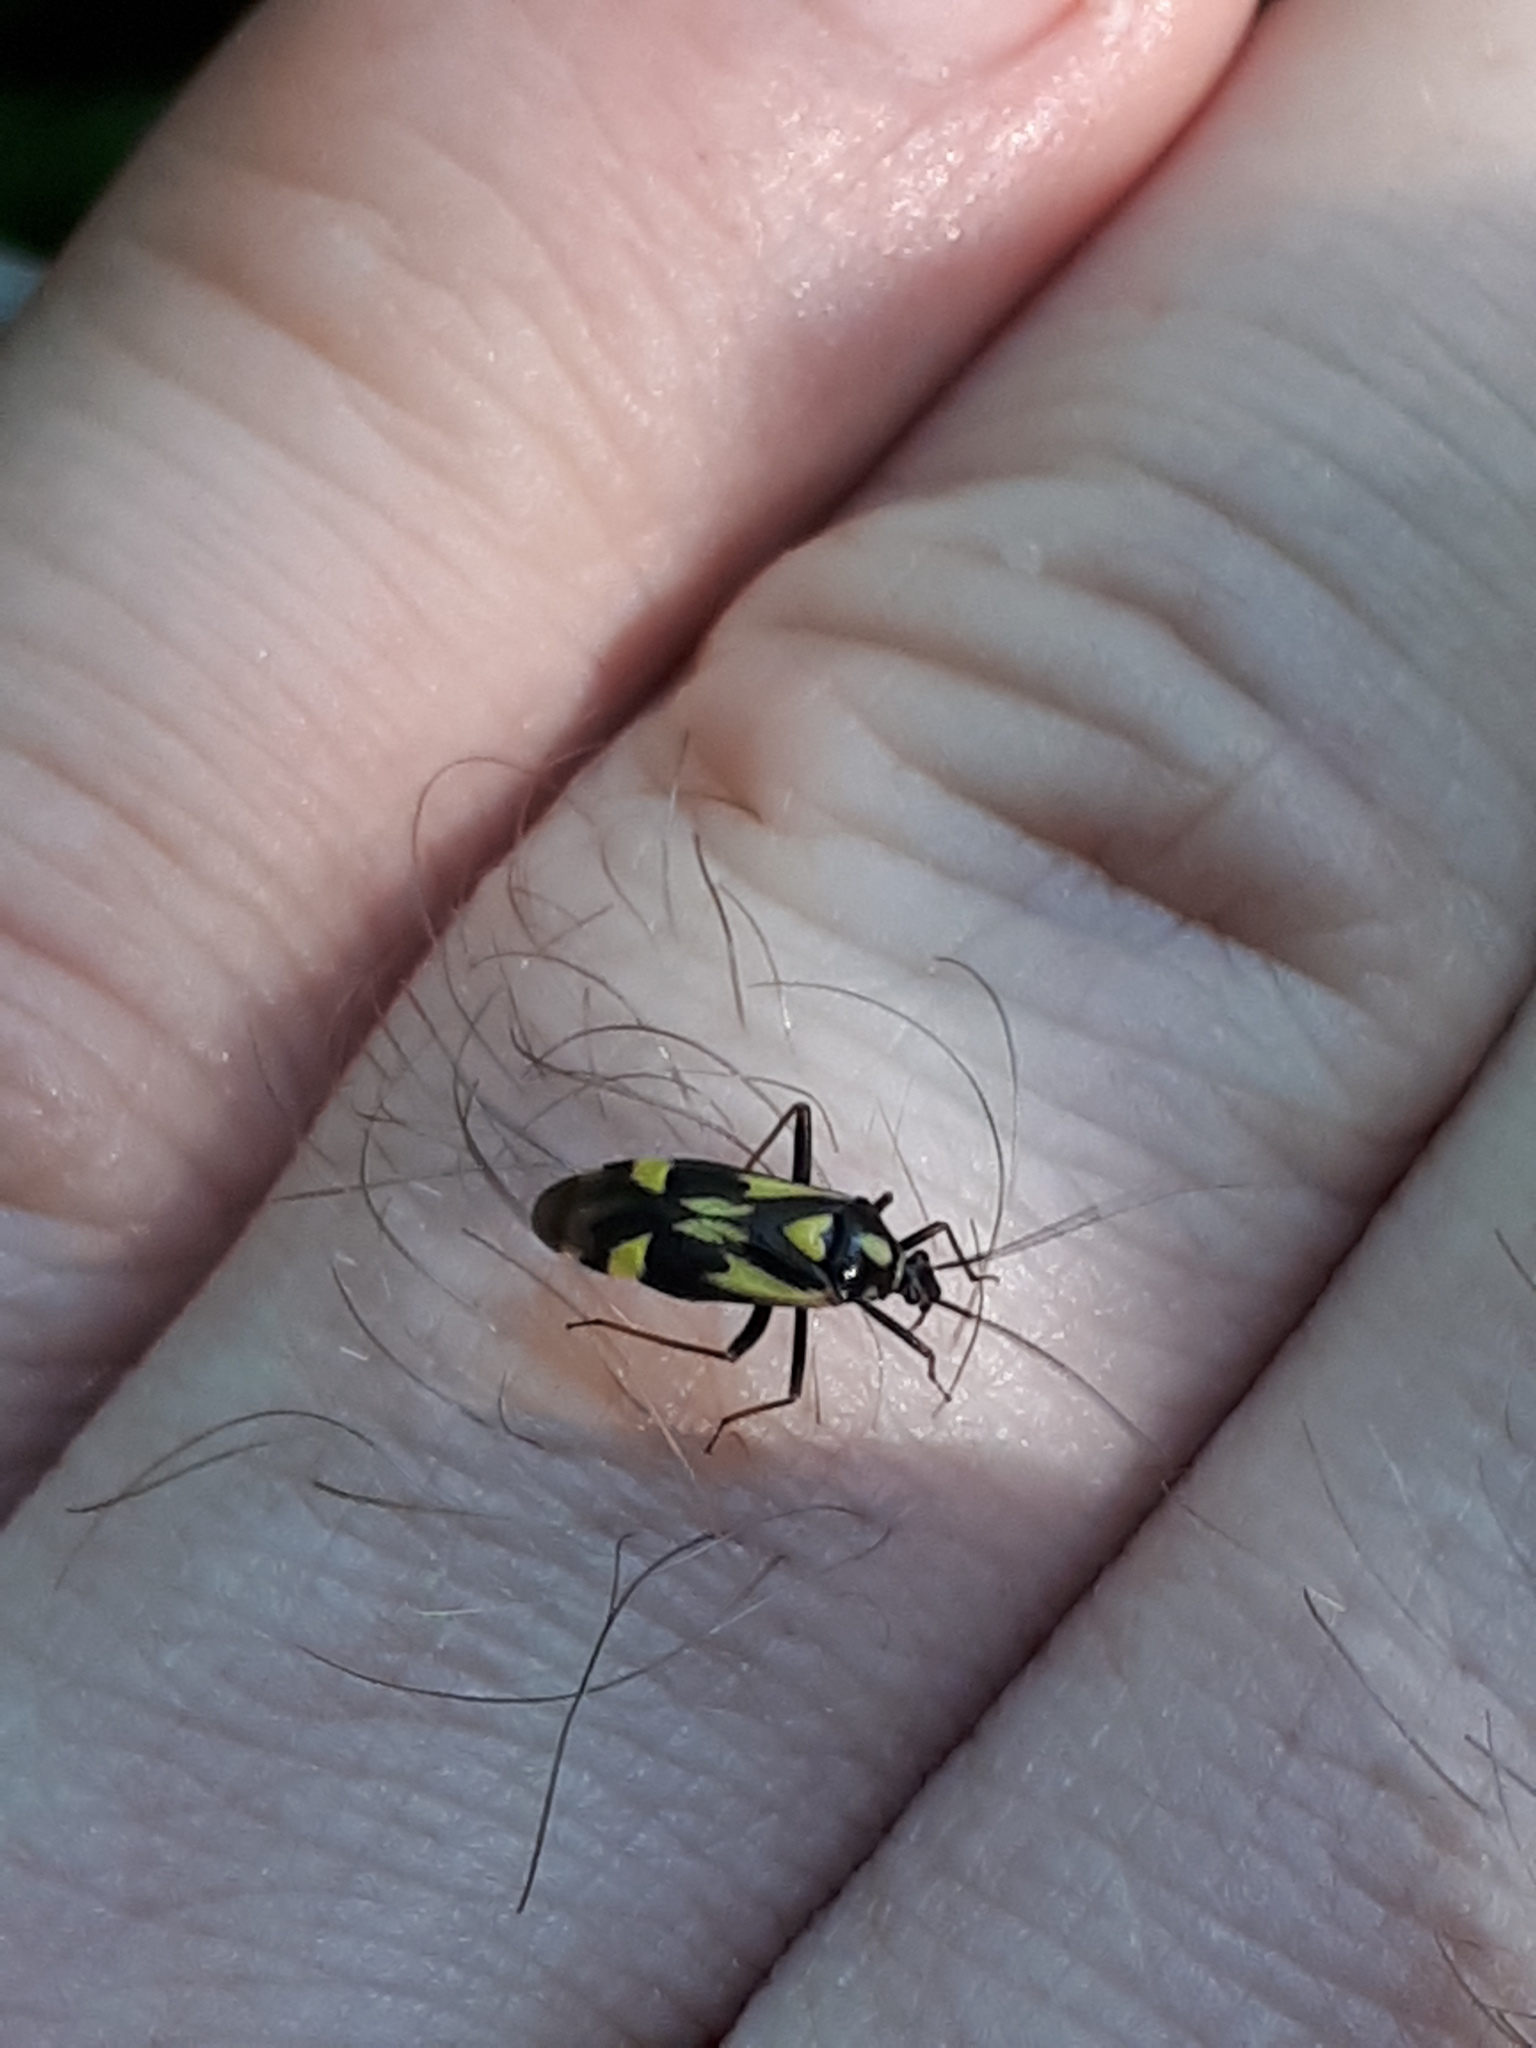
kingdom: Animalia
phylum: Arthropoda
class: Insecta
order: Hemiptera
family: Miridae
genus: Grypocoris
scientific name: Grypocoris sexguttatus
